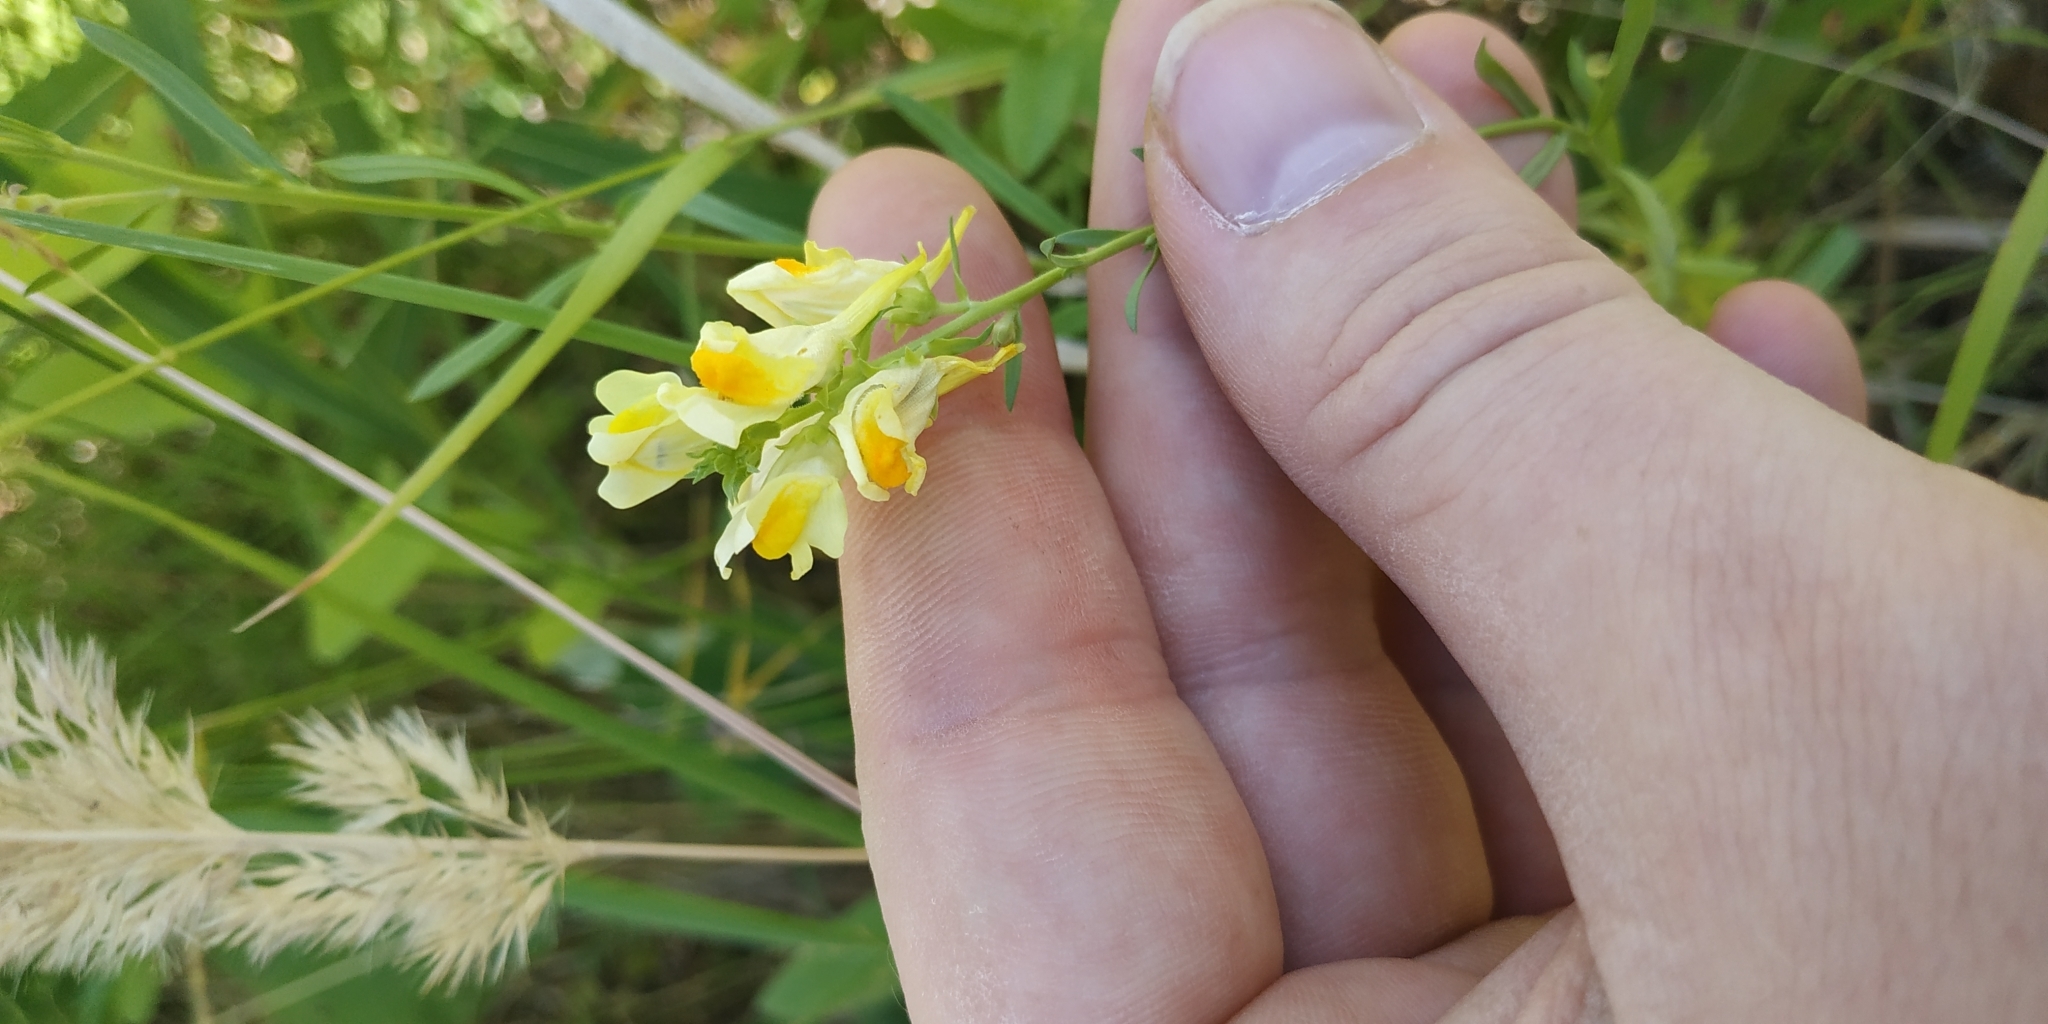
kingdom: Plantae
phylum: Tracheophyta
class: Magnoliopsida
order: Lamiales
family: Plantaginaceae
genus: Linaria
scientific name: Linaria vulgaris
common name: Butter and eggs
